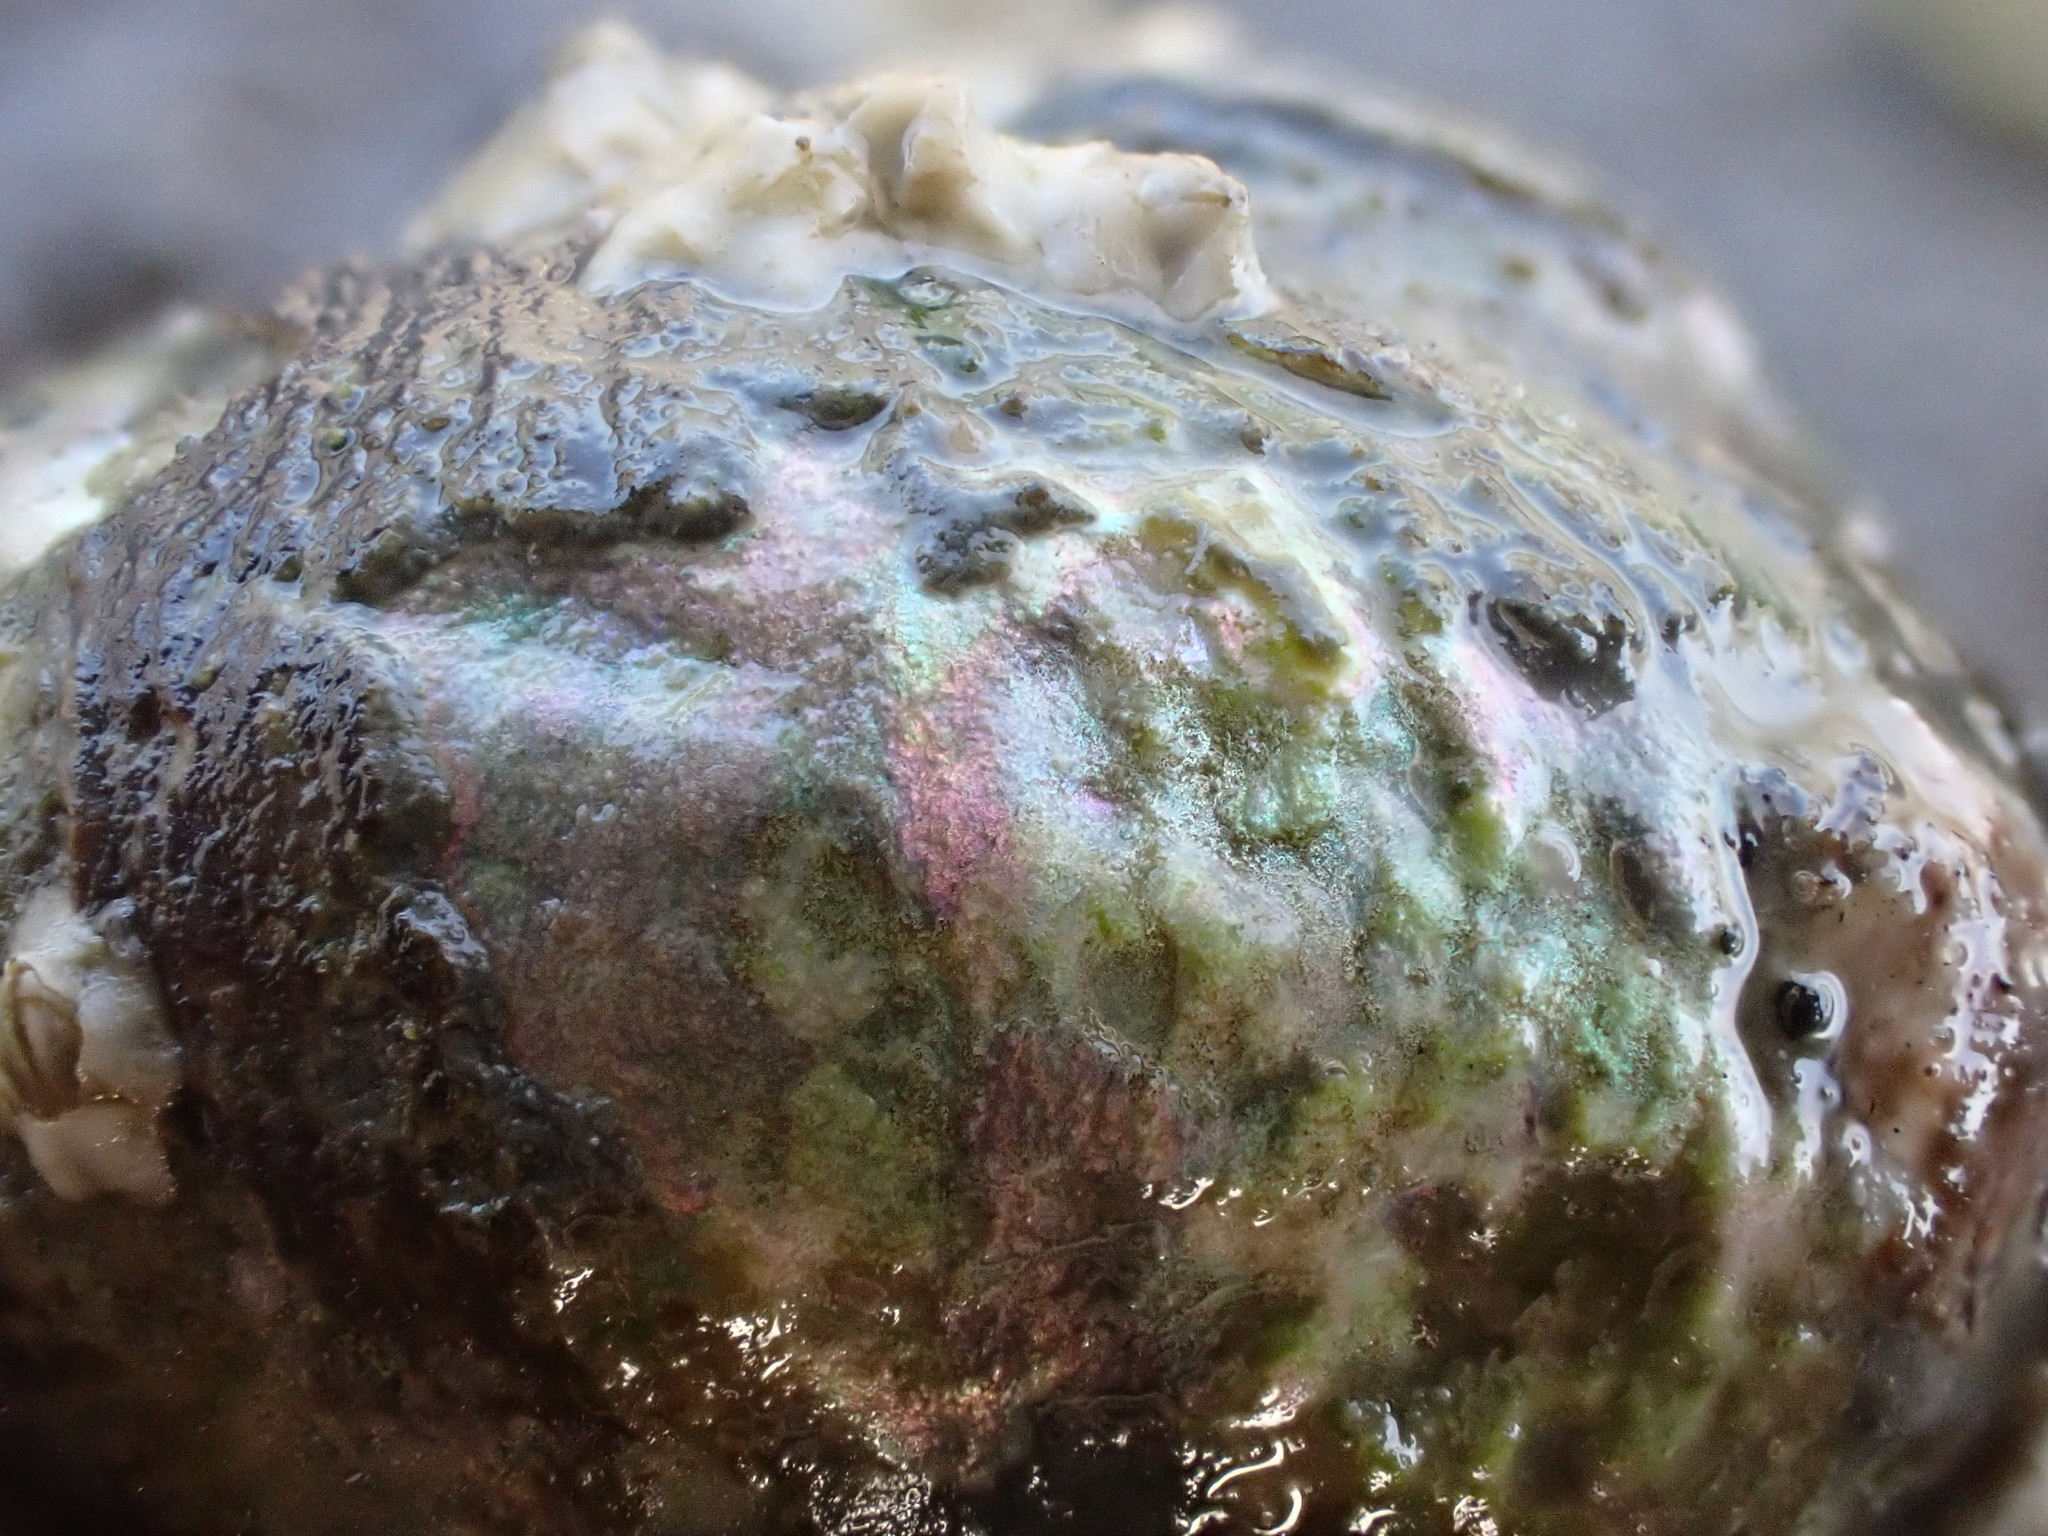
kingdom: Animalia
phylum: Mollusca
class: Gastropoda
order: Trochida
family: Turbinidae
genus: Lunella
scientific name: Lunella smaragda
